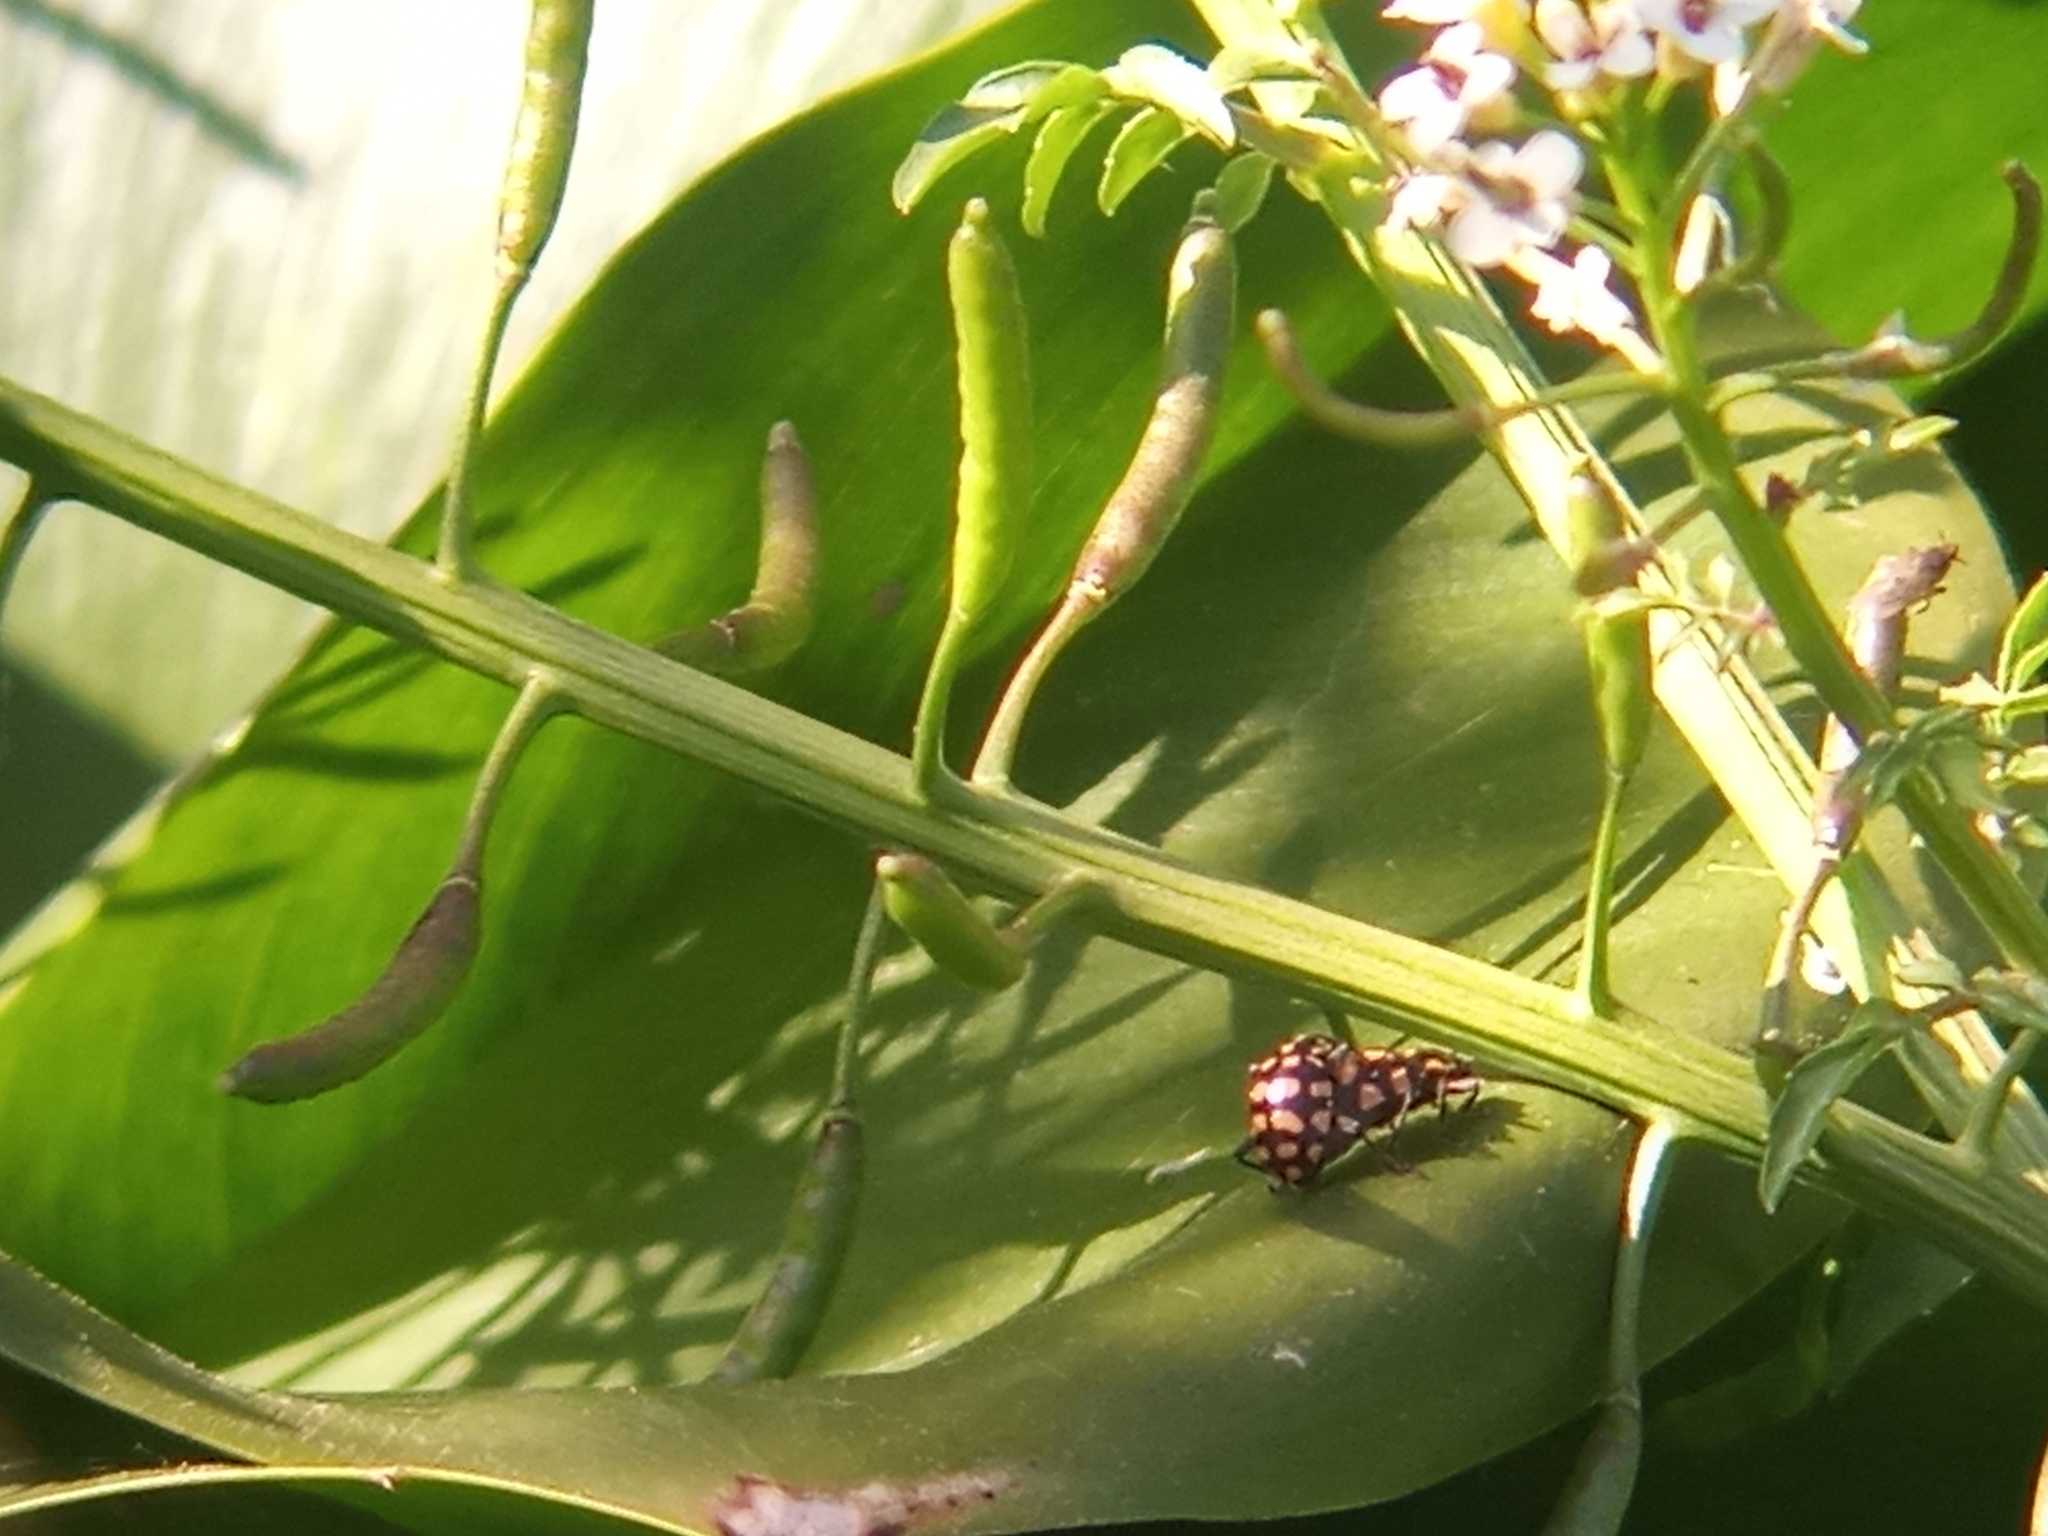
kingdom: Animalia
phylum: Arthropoda
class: Insecta
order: Coleoptera
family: Coccinellidae
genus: Coleomegilla
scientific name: Coleomegilla
